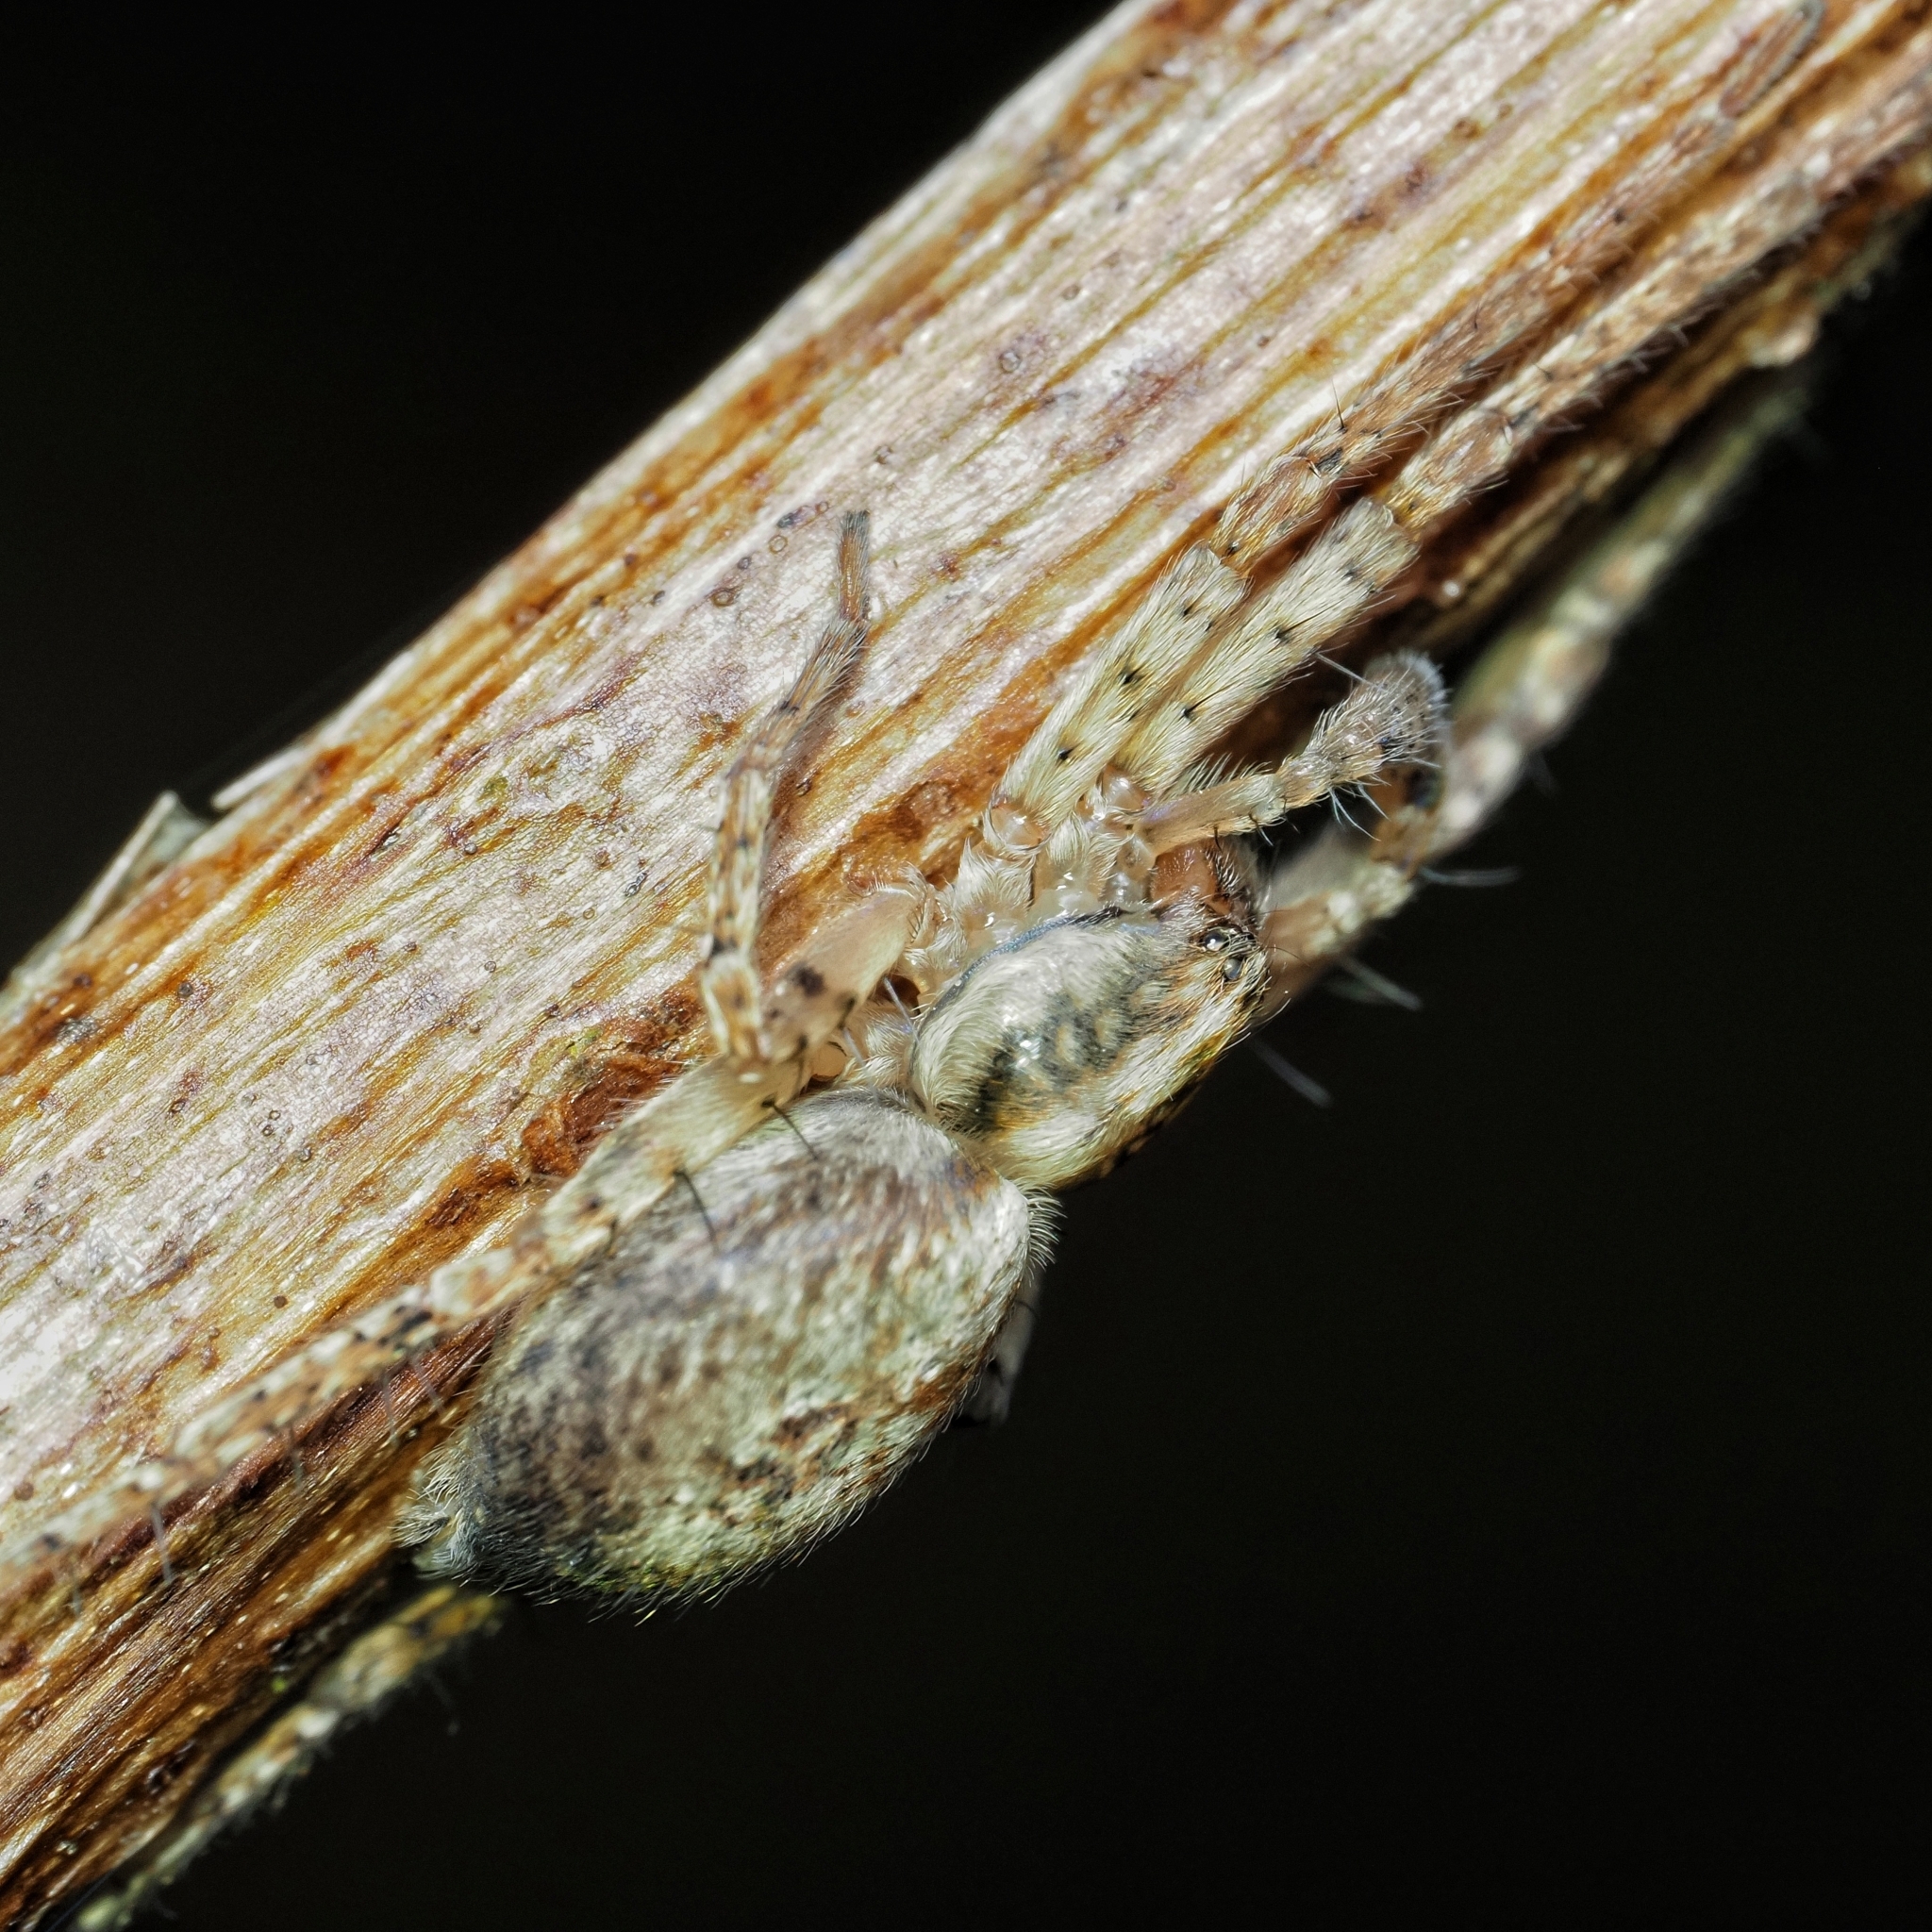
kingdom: Animalia
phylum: Arthropoda
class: Arachnida
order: Araneae
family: Anyphaenidae
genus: Anyphaena
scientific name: Anyphaena accentuata
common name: Buzzing spider
